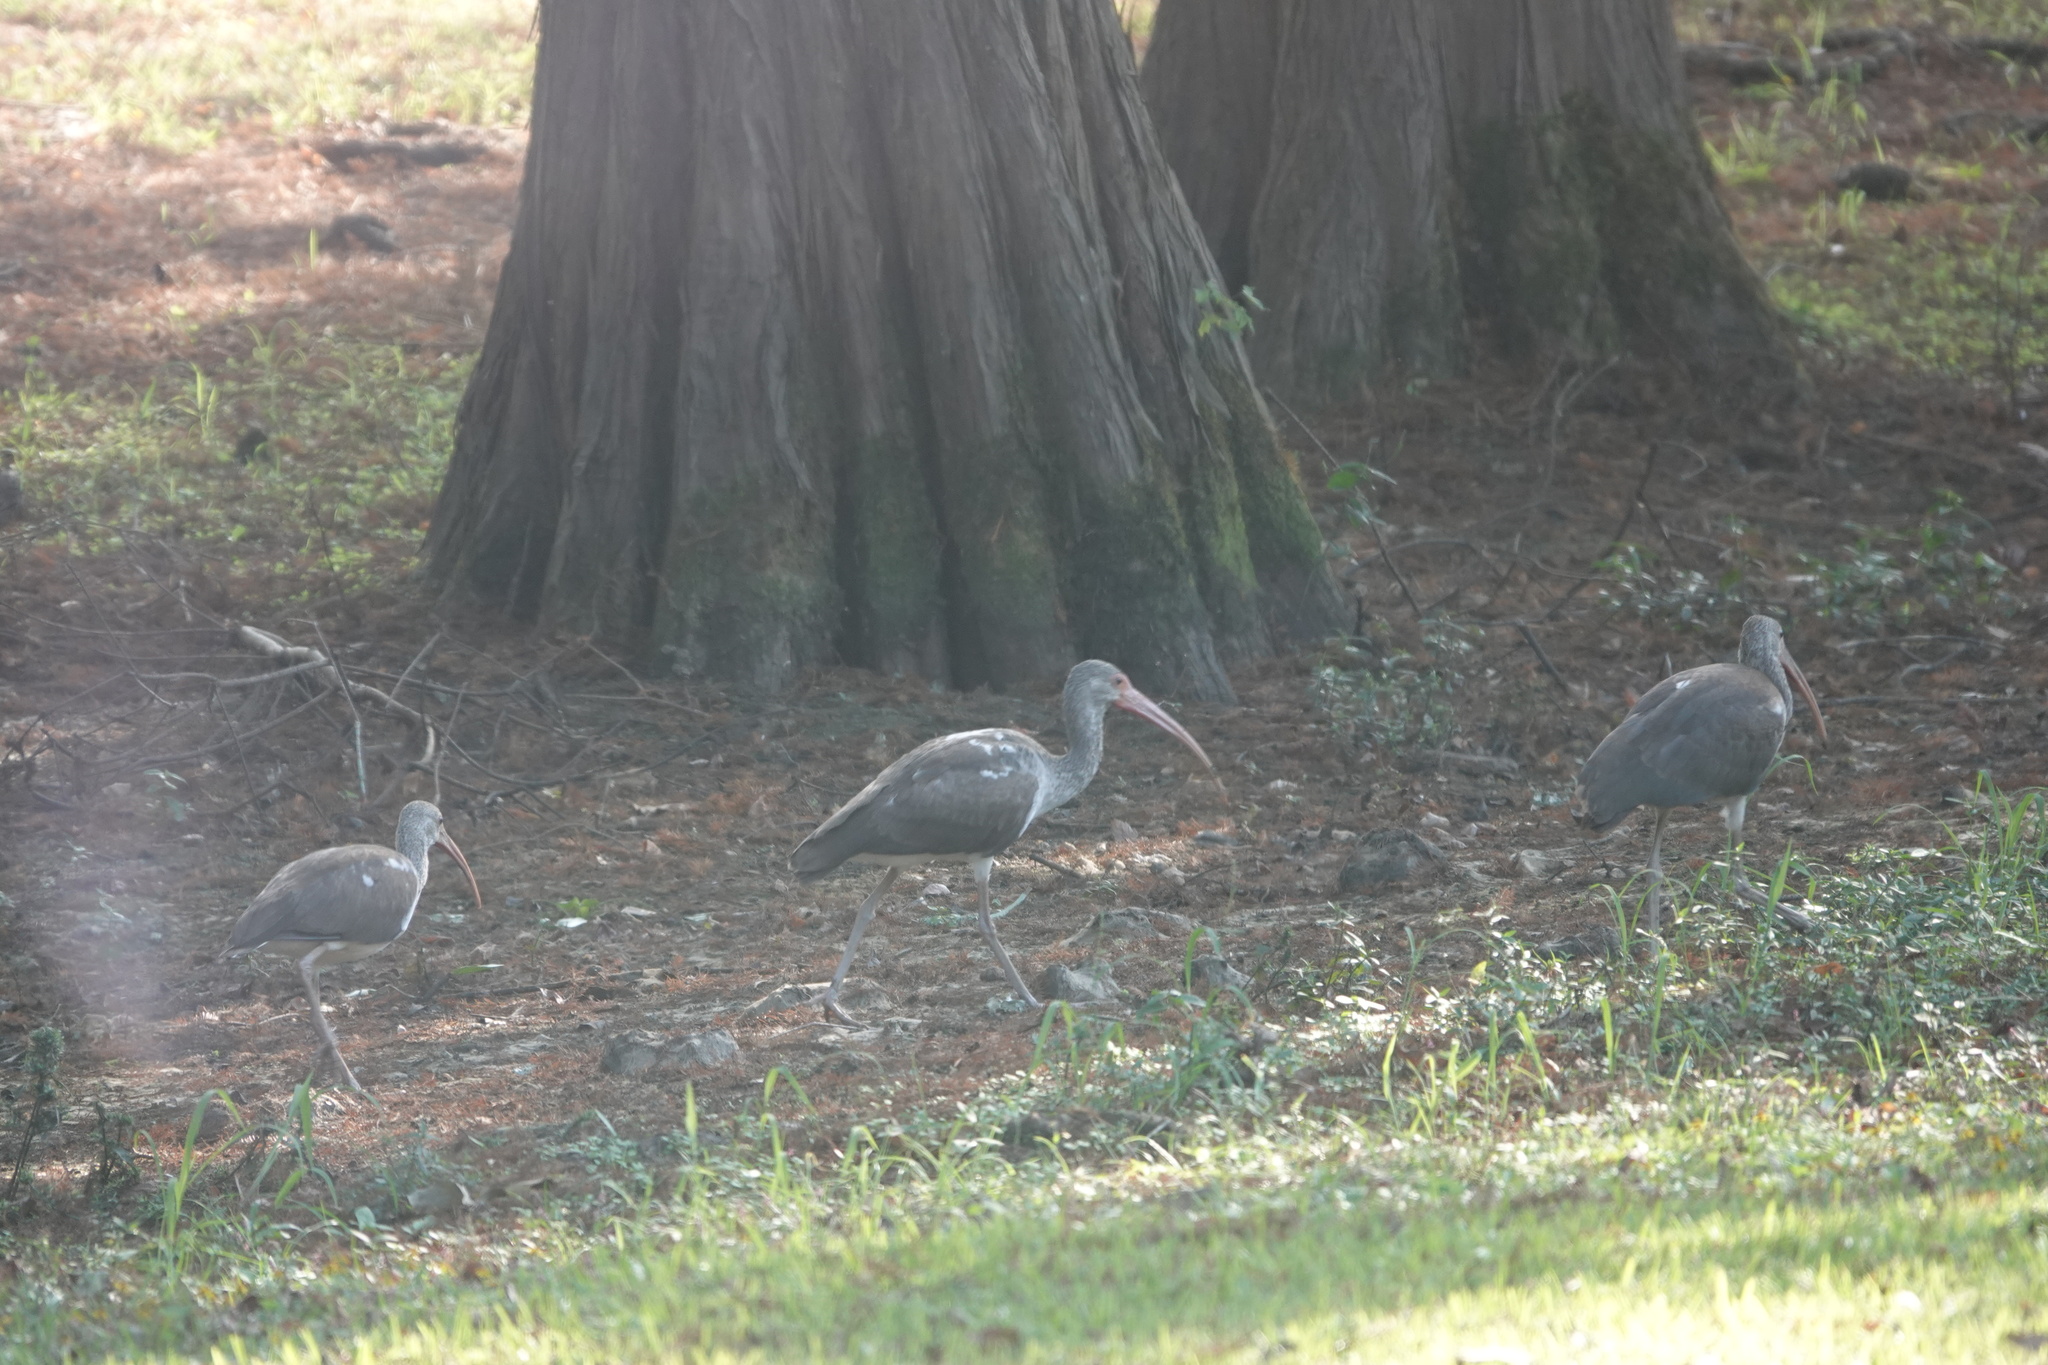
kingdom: Animalia
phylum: Chordata
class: Aves
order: Pelecaniformes
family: Threskiornithidae
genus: Eudocimus
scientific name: Eudocimus albus
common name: White ibis
